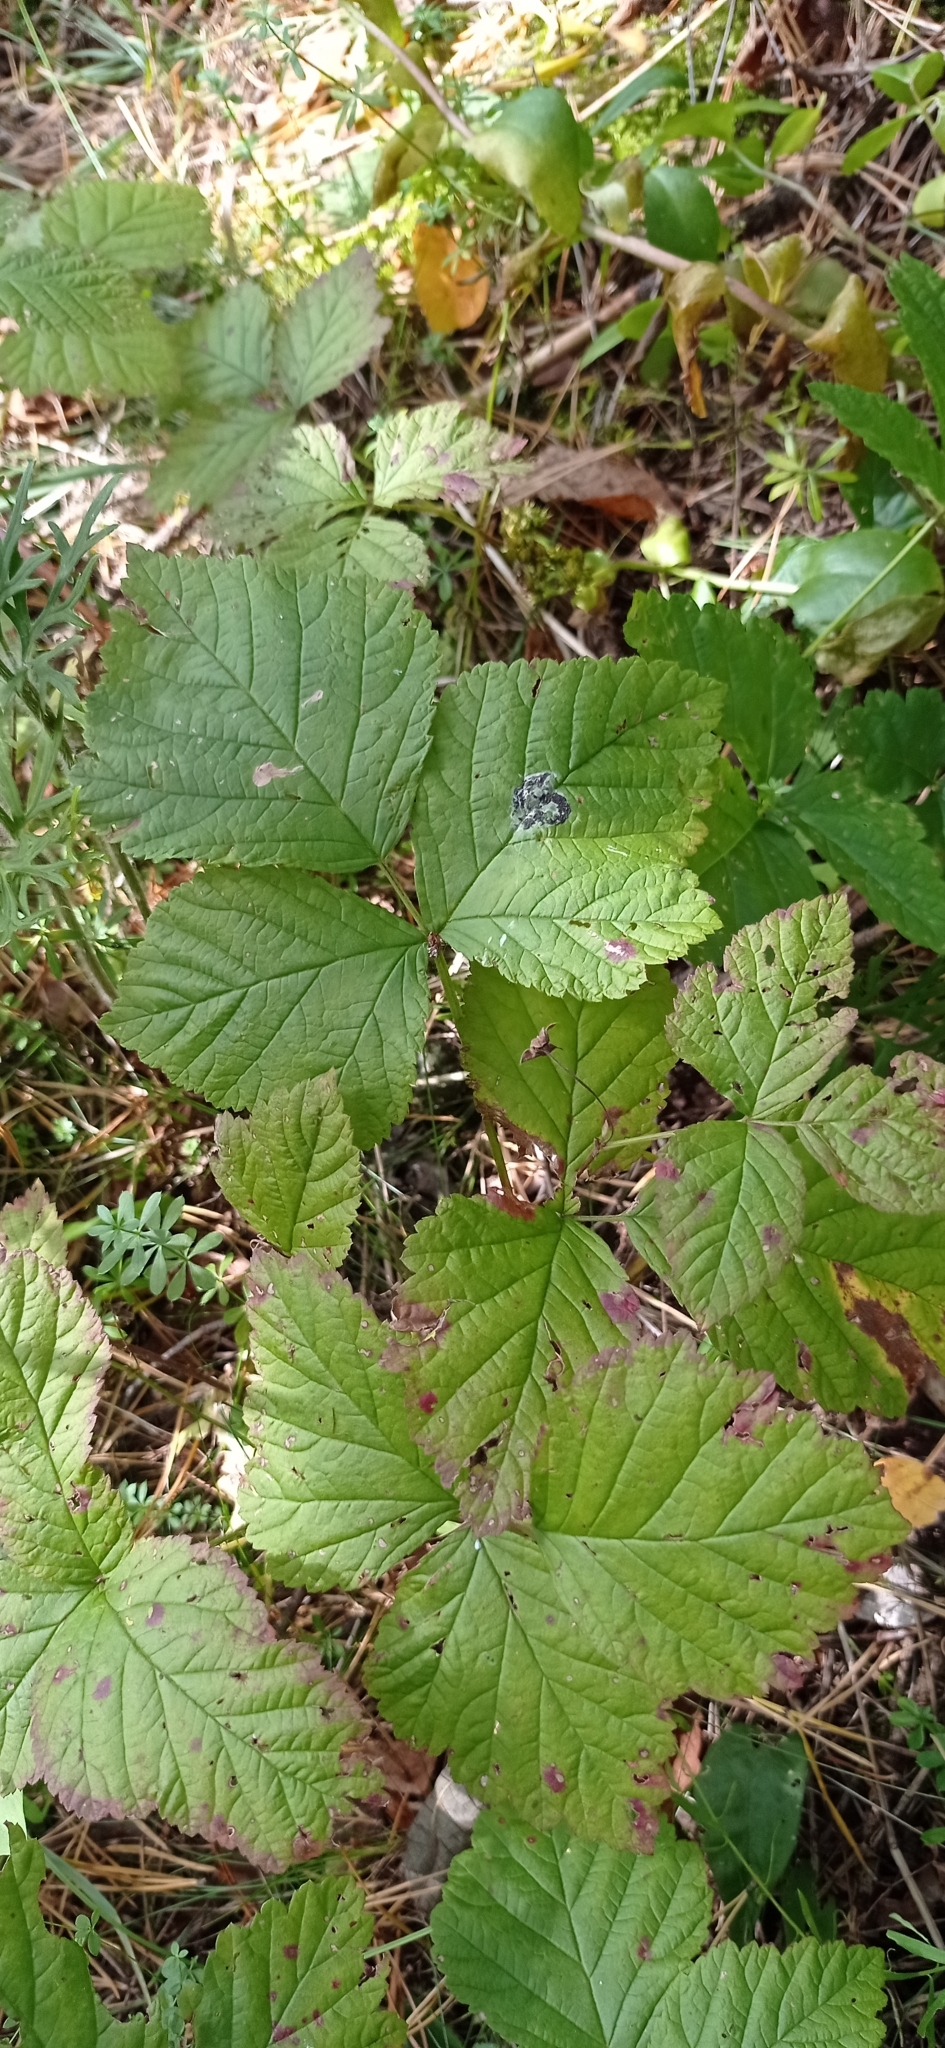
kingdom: Plantae
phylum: Tracheophyta
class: Magnoliopsida
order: Rosales
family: Rosaceae
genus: Rubus
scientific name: Rubus saxatilis
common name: Stone bramble
